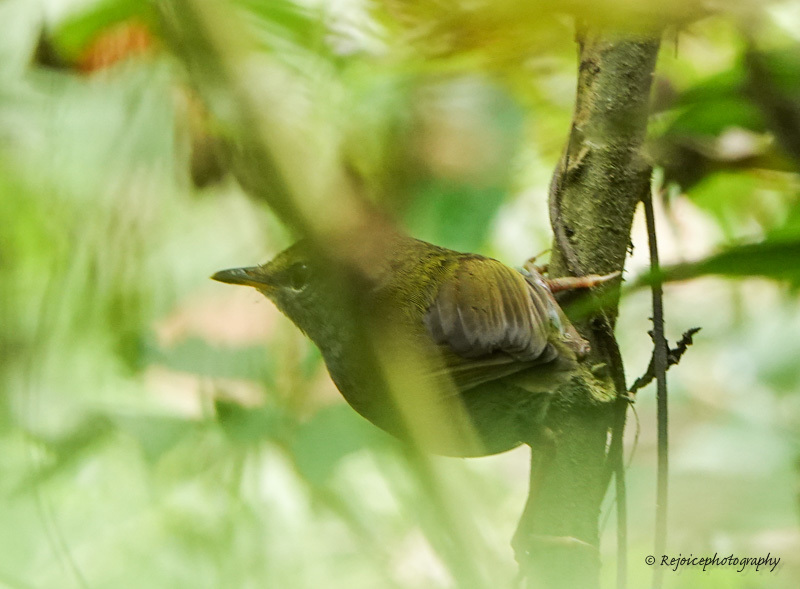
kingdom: Animalia
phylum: Chordata
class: Aves
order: Passeriformes
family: Cettiidae
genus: Tesia
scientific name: Tesia cyaniventer
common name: Grey-bellied tesia
